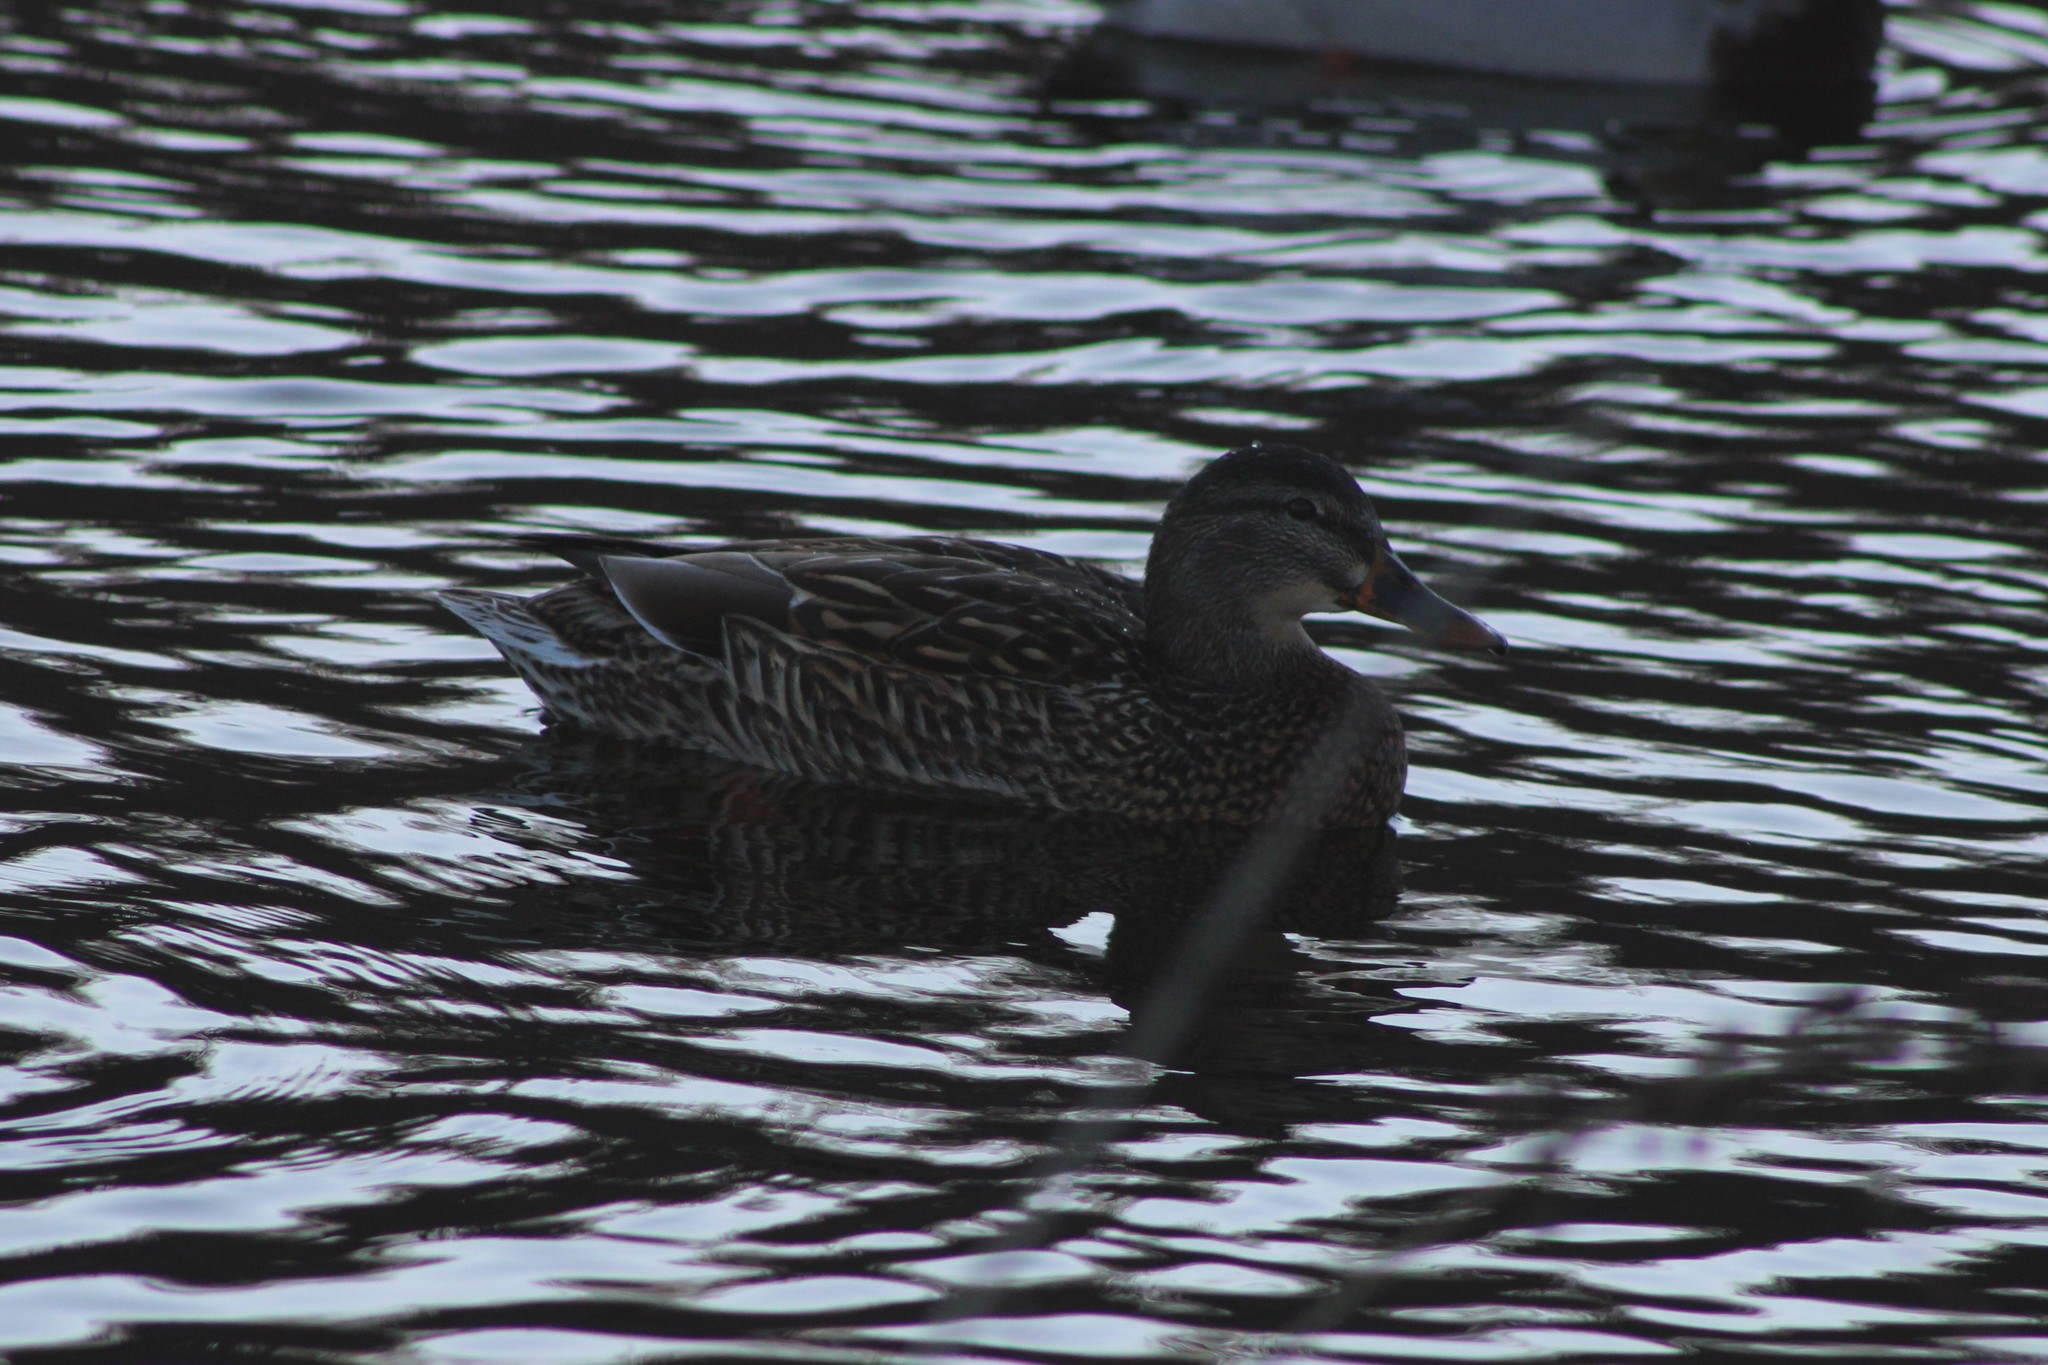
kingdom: Animalia
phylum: Chordata
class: Aves
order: Anseriformes
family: Anatidae
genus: Anas
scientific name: Anas platyrhynchos
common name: Mallard
